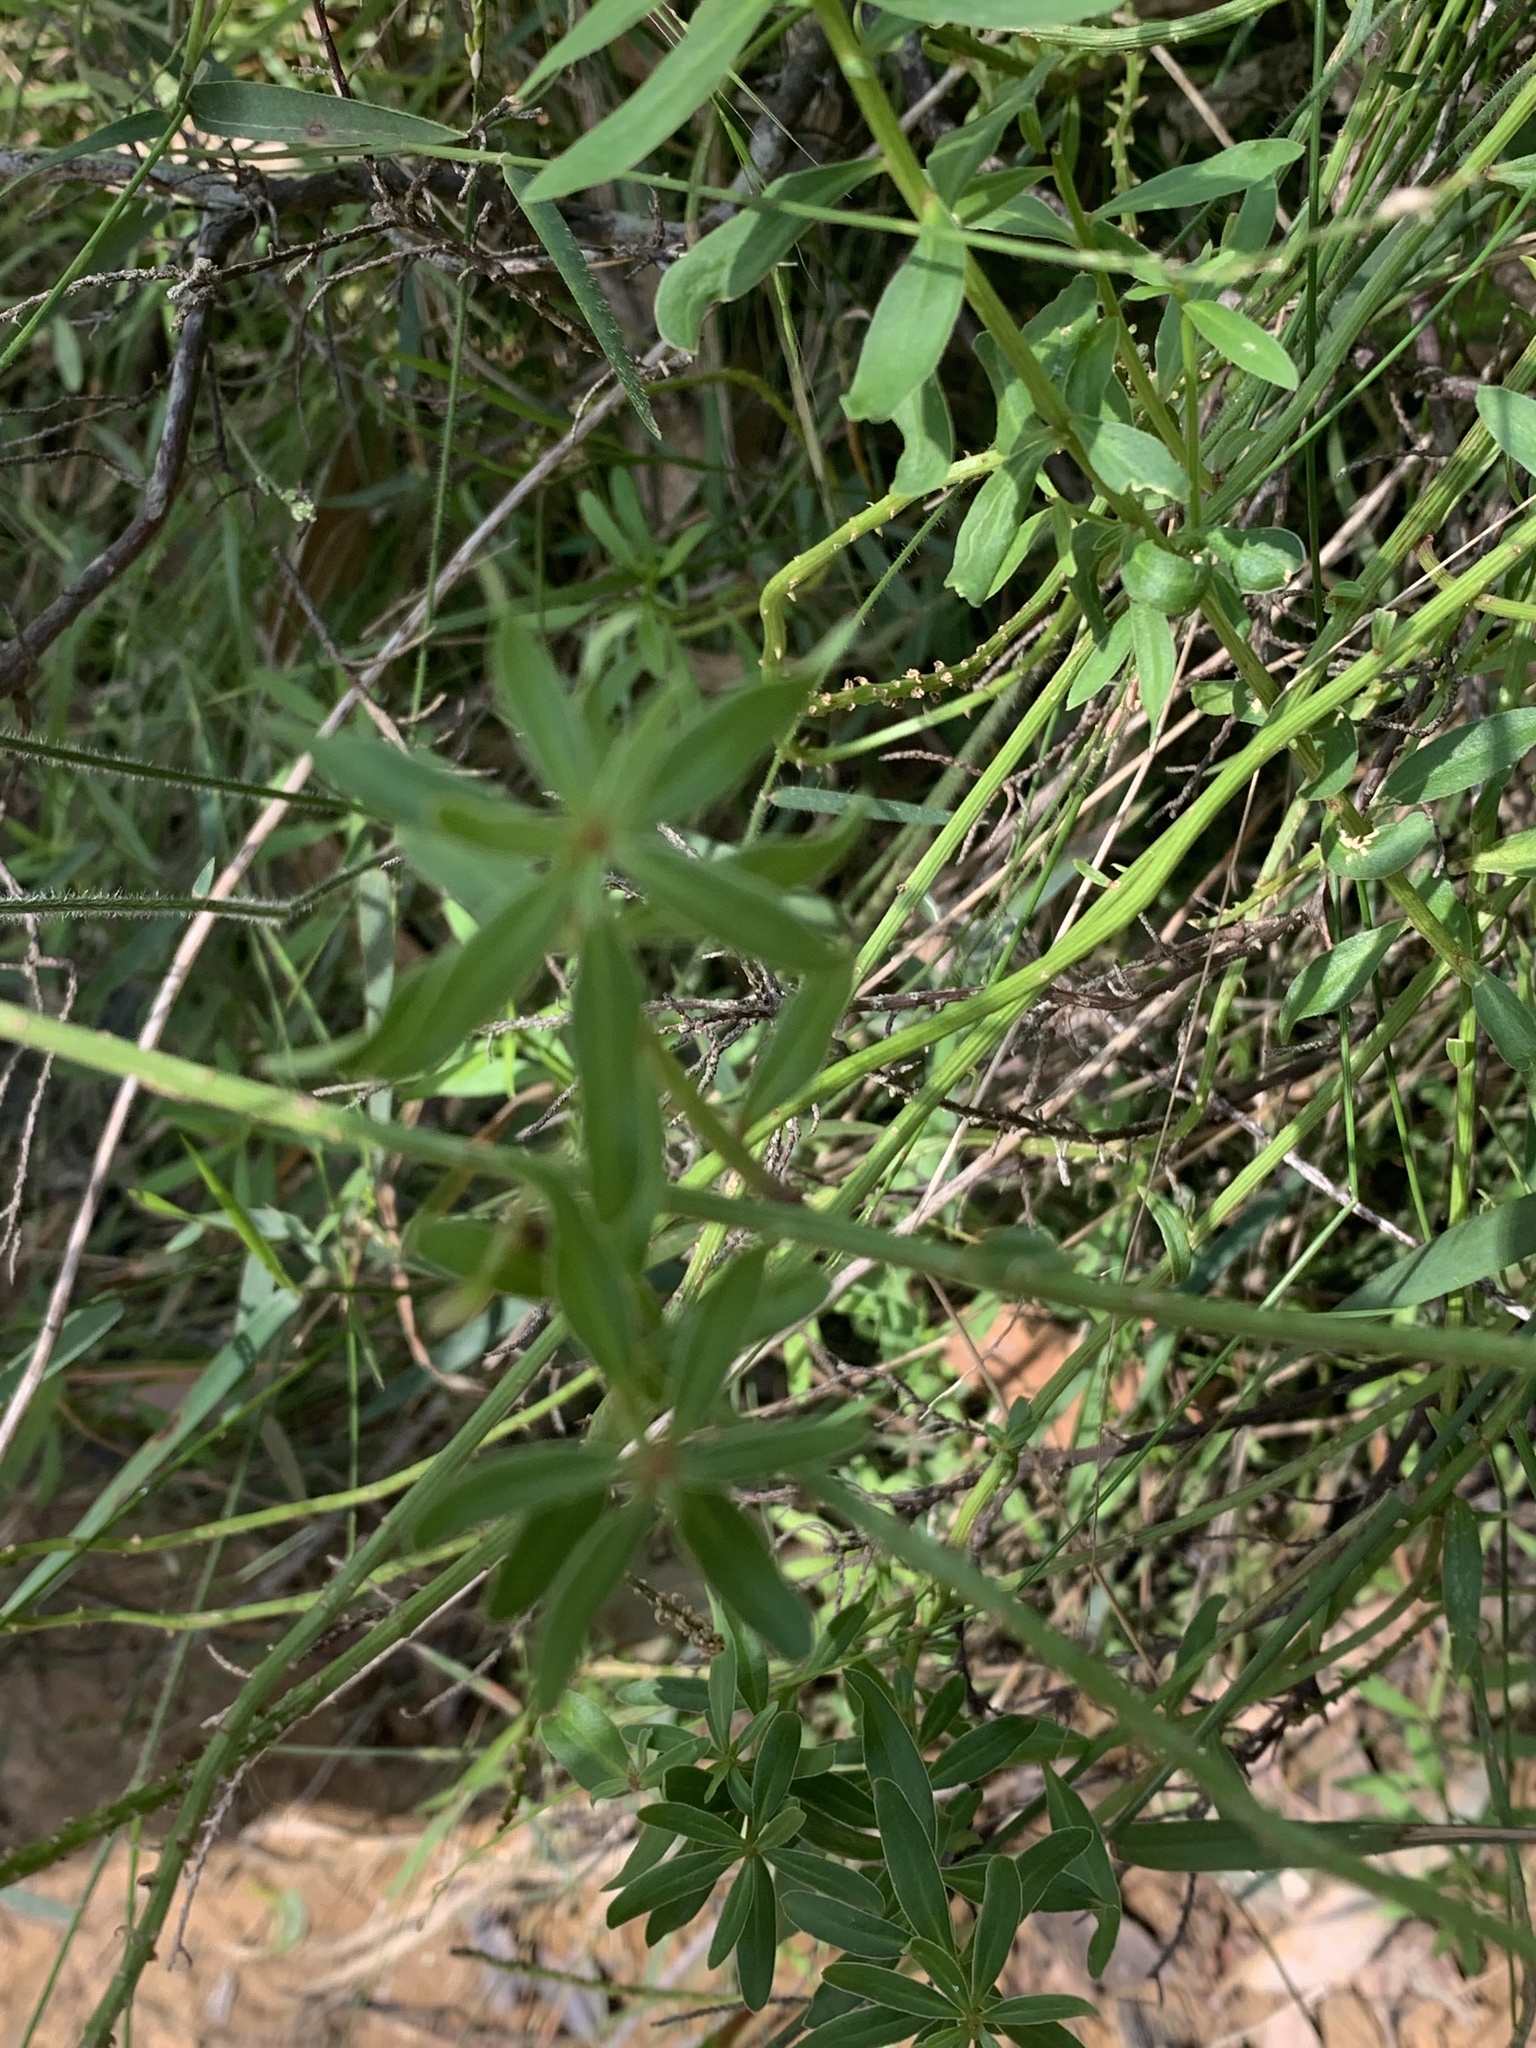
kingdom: Plantae
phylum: Tracheophyta
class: Magnoliopsida
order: Celastrales
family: Celastraceae
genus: Stackhousia
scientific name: Stackhousia monogyna
